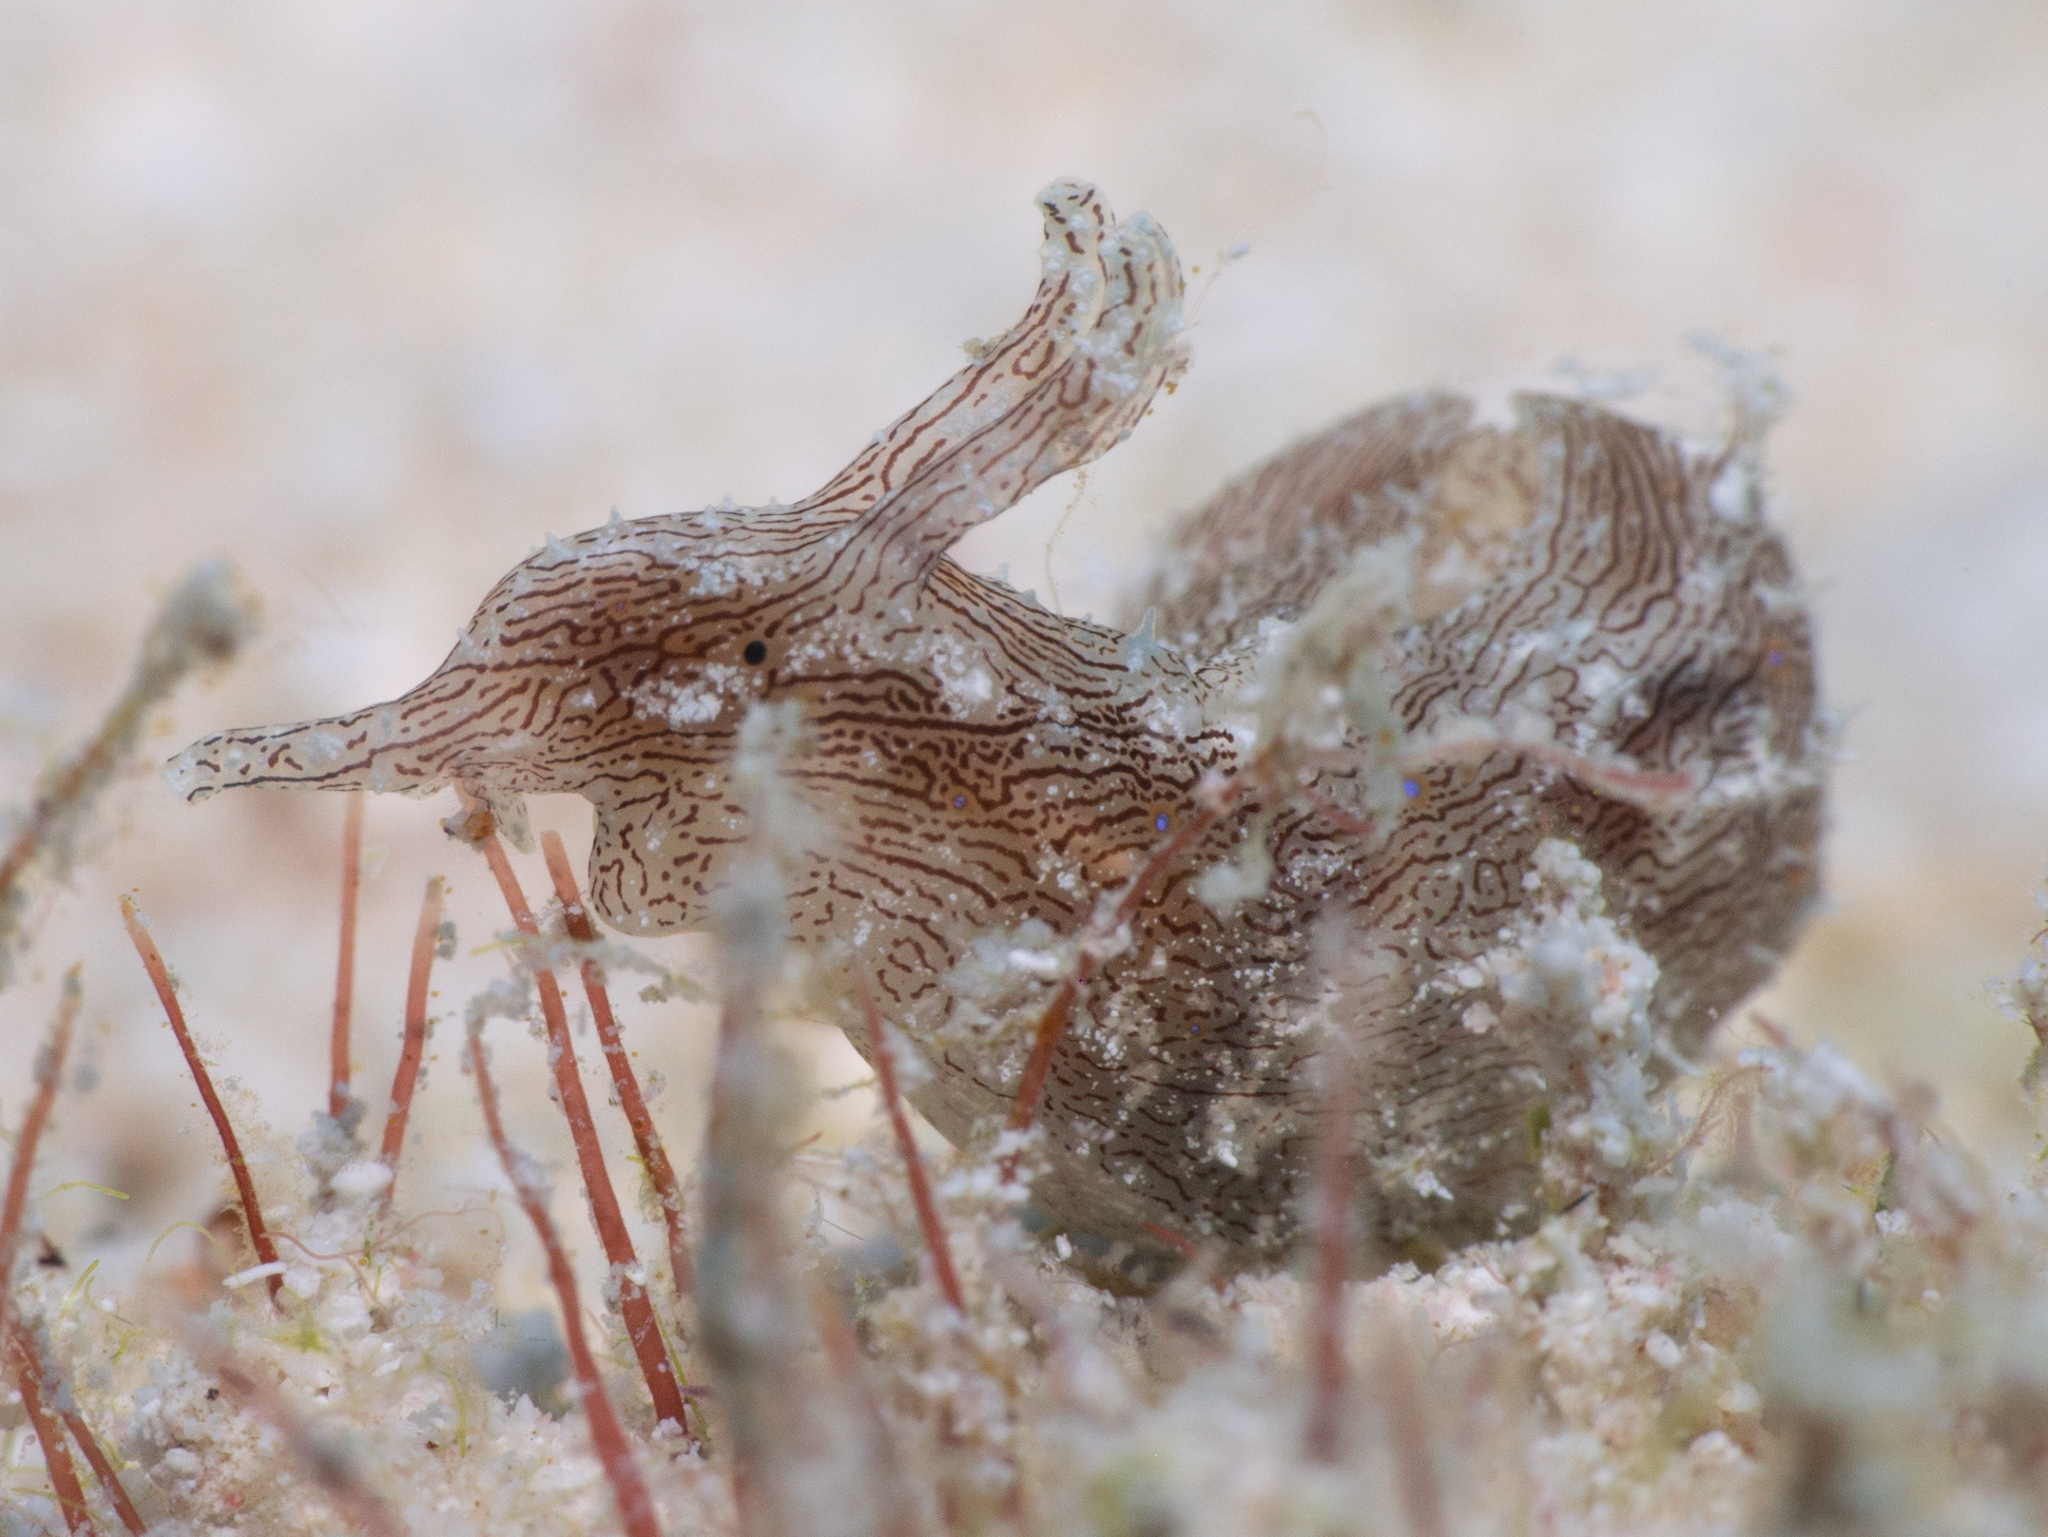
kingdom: Animalia
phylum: Mollusca
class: Gastropoda
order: Aplysiida
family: Aplysiidae
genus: Stylocheilus
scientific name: Stylocheilus polyomma
